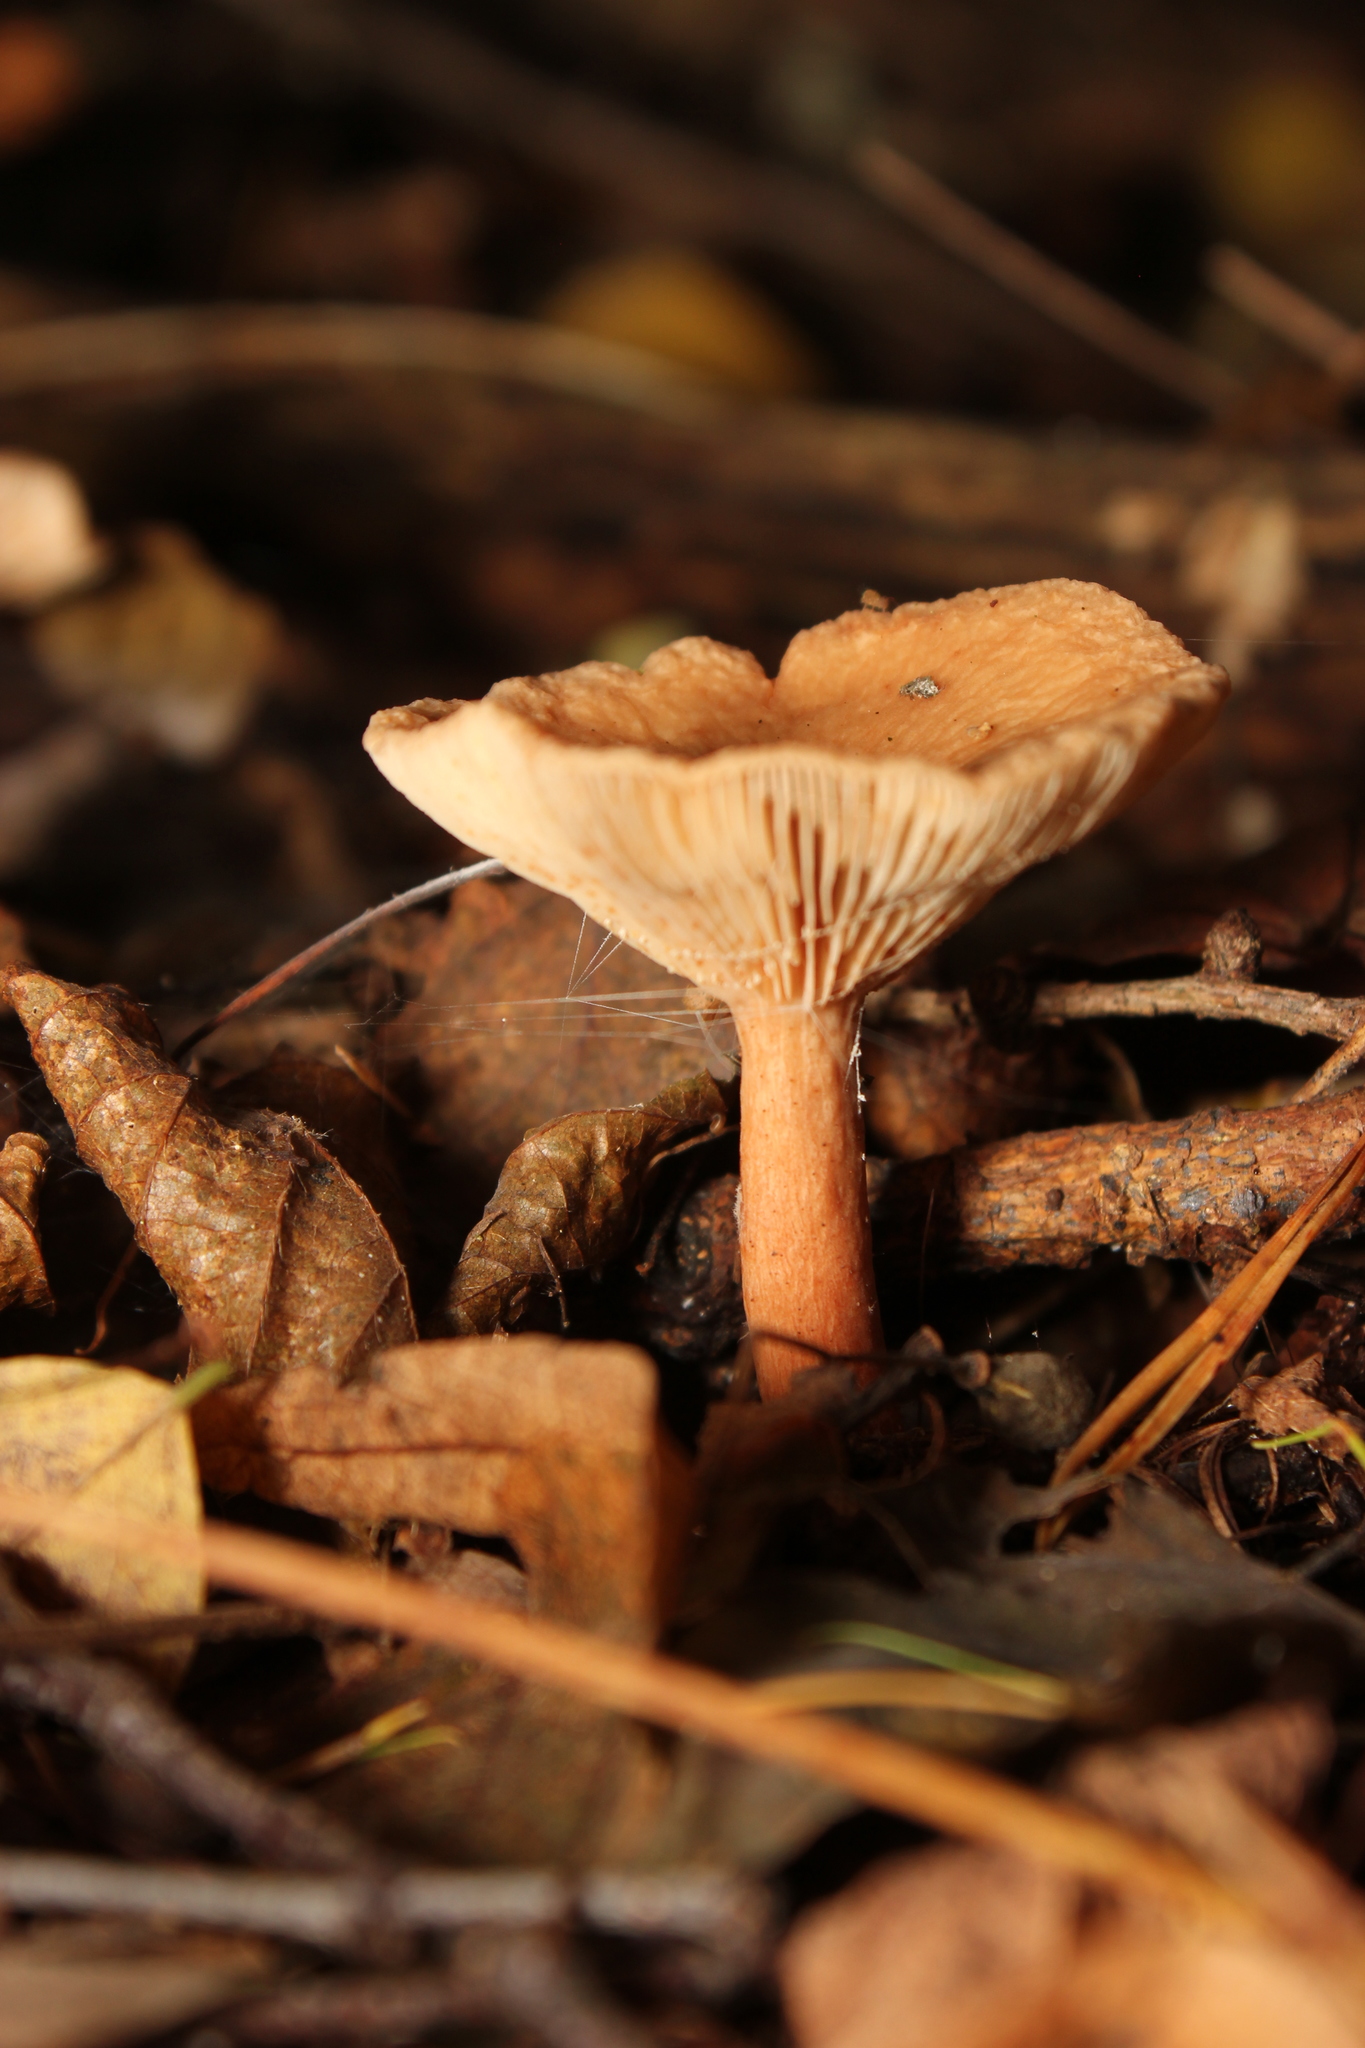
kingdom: Fungi
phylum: Basidiomycota
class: Agaricomycetes
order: Agaricales
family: Tricholomataceae
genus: Infundibulicybe
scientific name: Infundibulicybe gibba
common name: Common funnel
